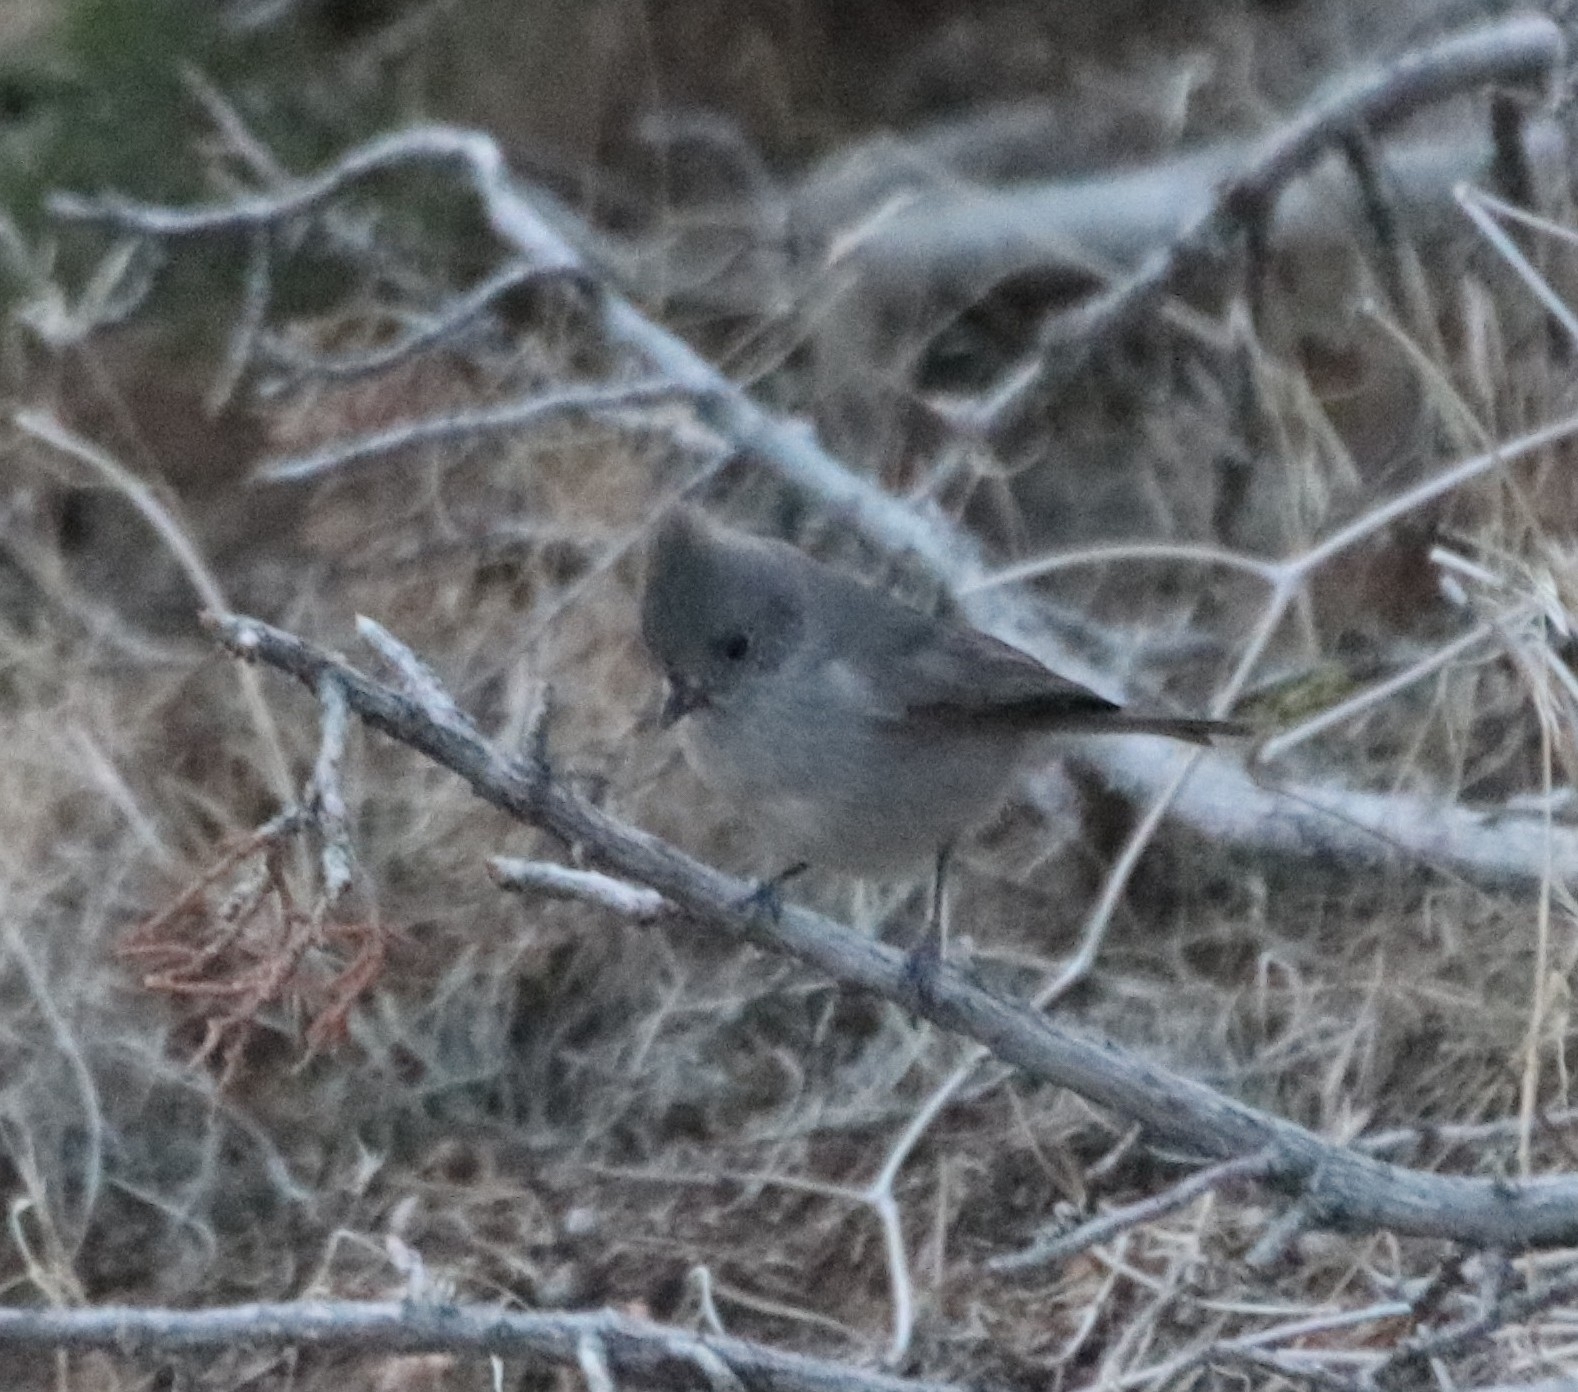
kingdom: Animalia
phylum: Chordata
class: Aves
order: Passeriformes
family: Paridae
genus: Baeolophus
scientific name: Baeolophus inornatus
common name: Oak titmouse
